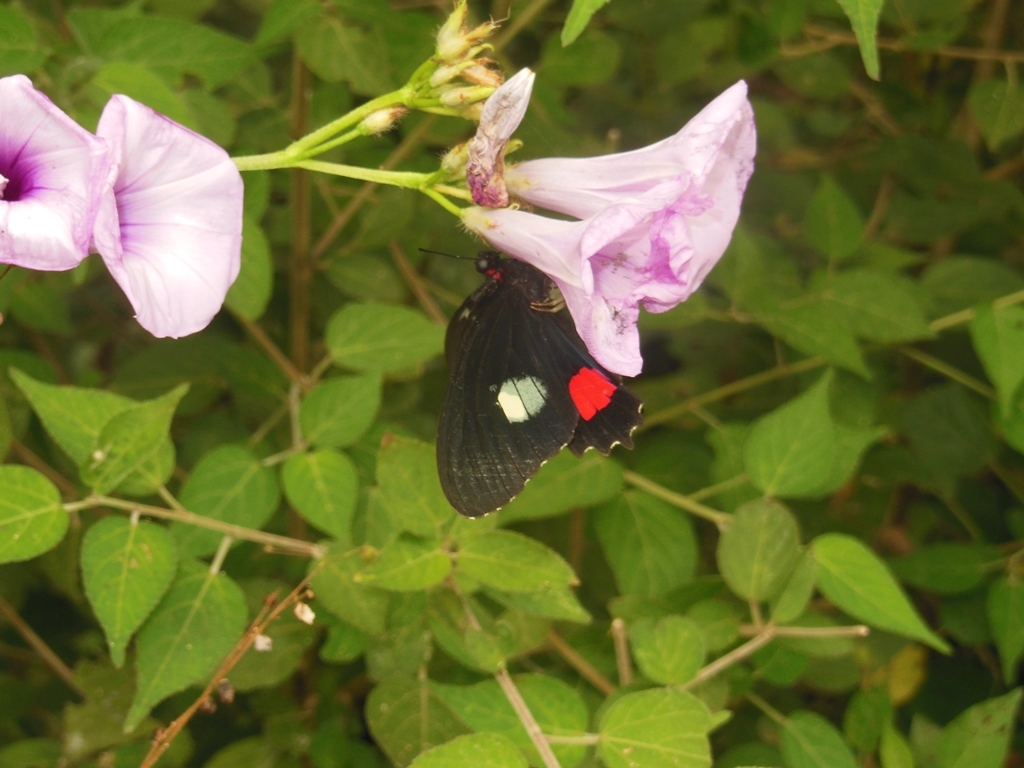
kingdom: Animalia
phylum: Arthropoda
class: Insecta
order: Lepidoptera
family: Papilionidae
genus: Parides
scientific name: Parides iphidamas
